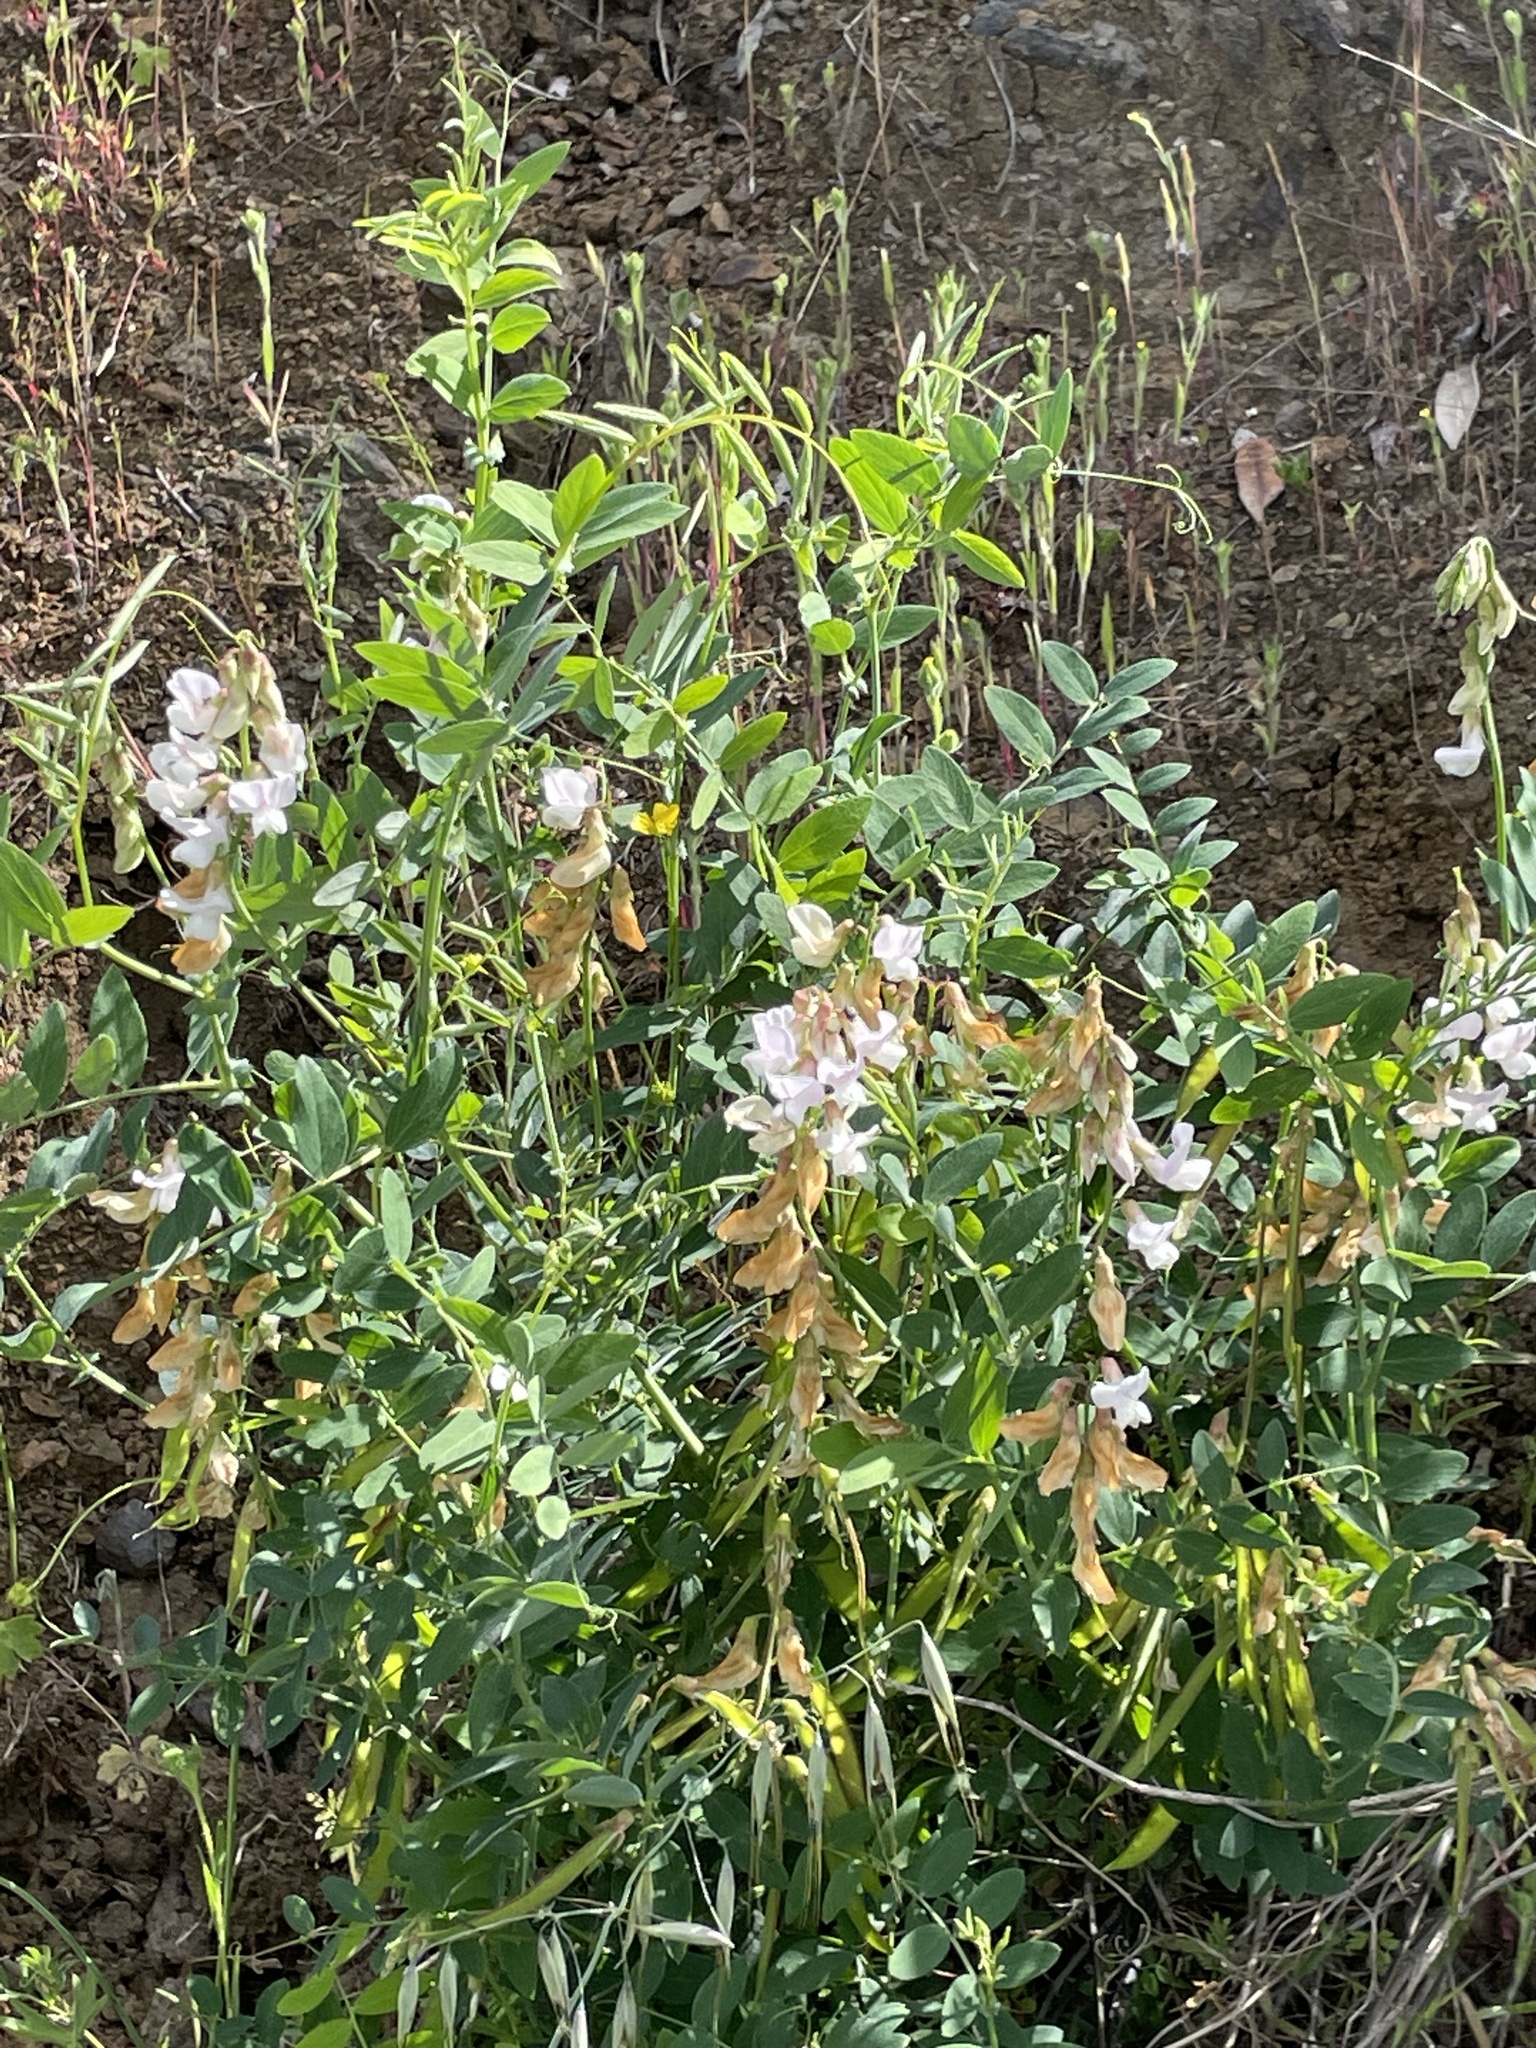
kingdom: Plantae
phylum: Tracheophyta
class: Magnoliopsida
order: Fabales
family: Fabaceae
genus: Lathyrus
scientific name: Lathyrus vestitus
